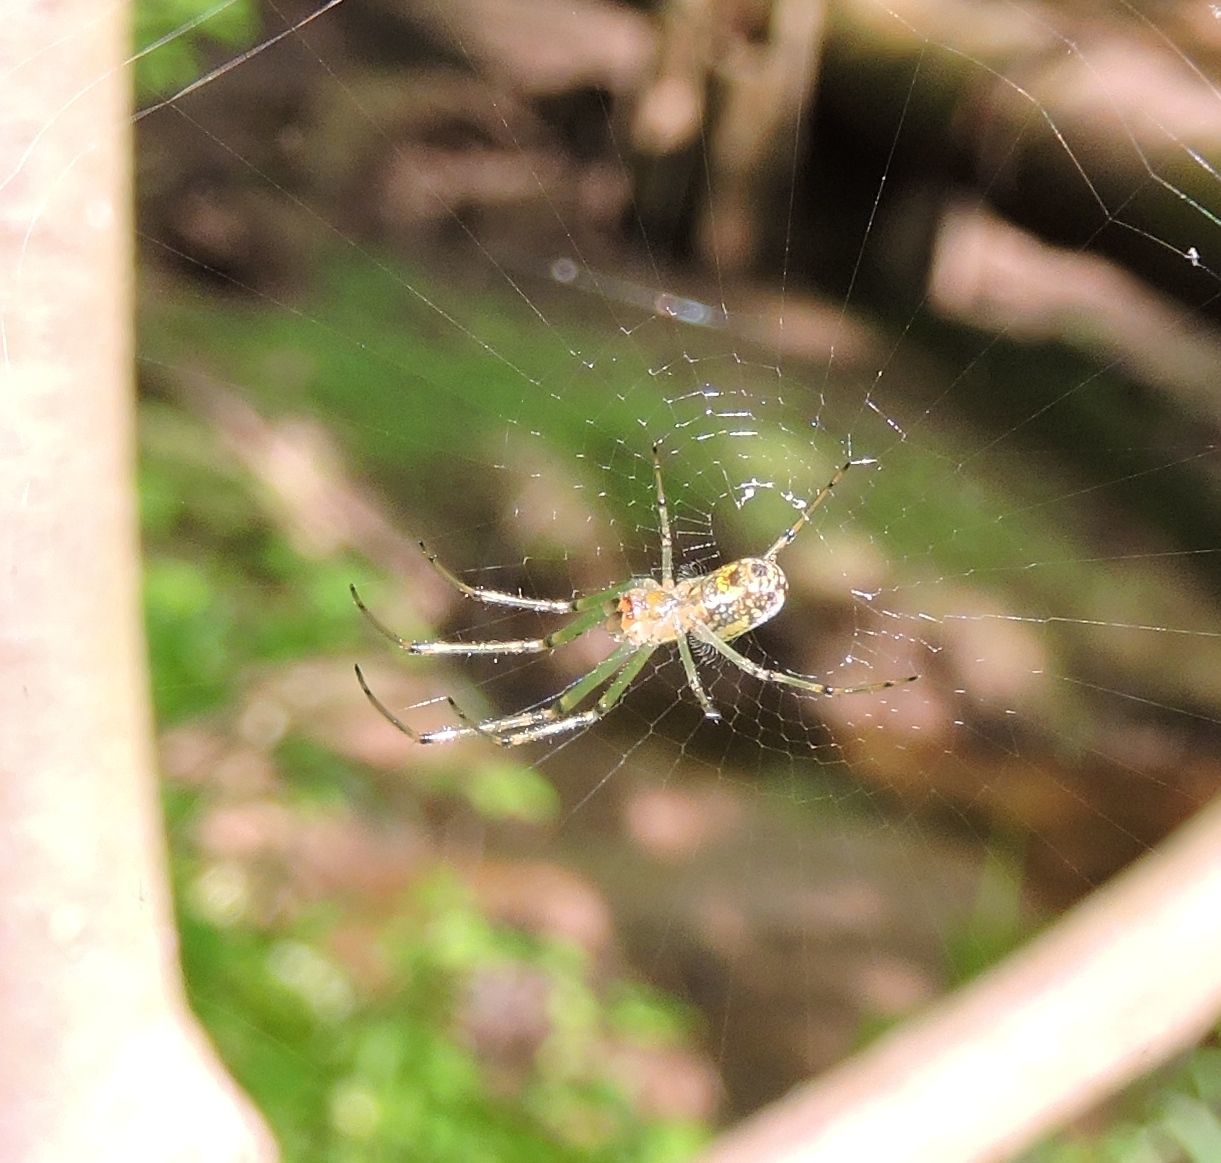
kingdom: Animalia
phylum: Arthropoda
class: Arachnida
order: Araneae
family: Tetragnathidae
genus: Leucauge
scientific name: Leucauge venusta
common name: Longjawed orb weavers
